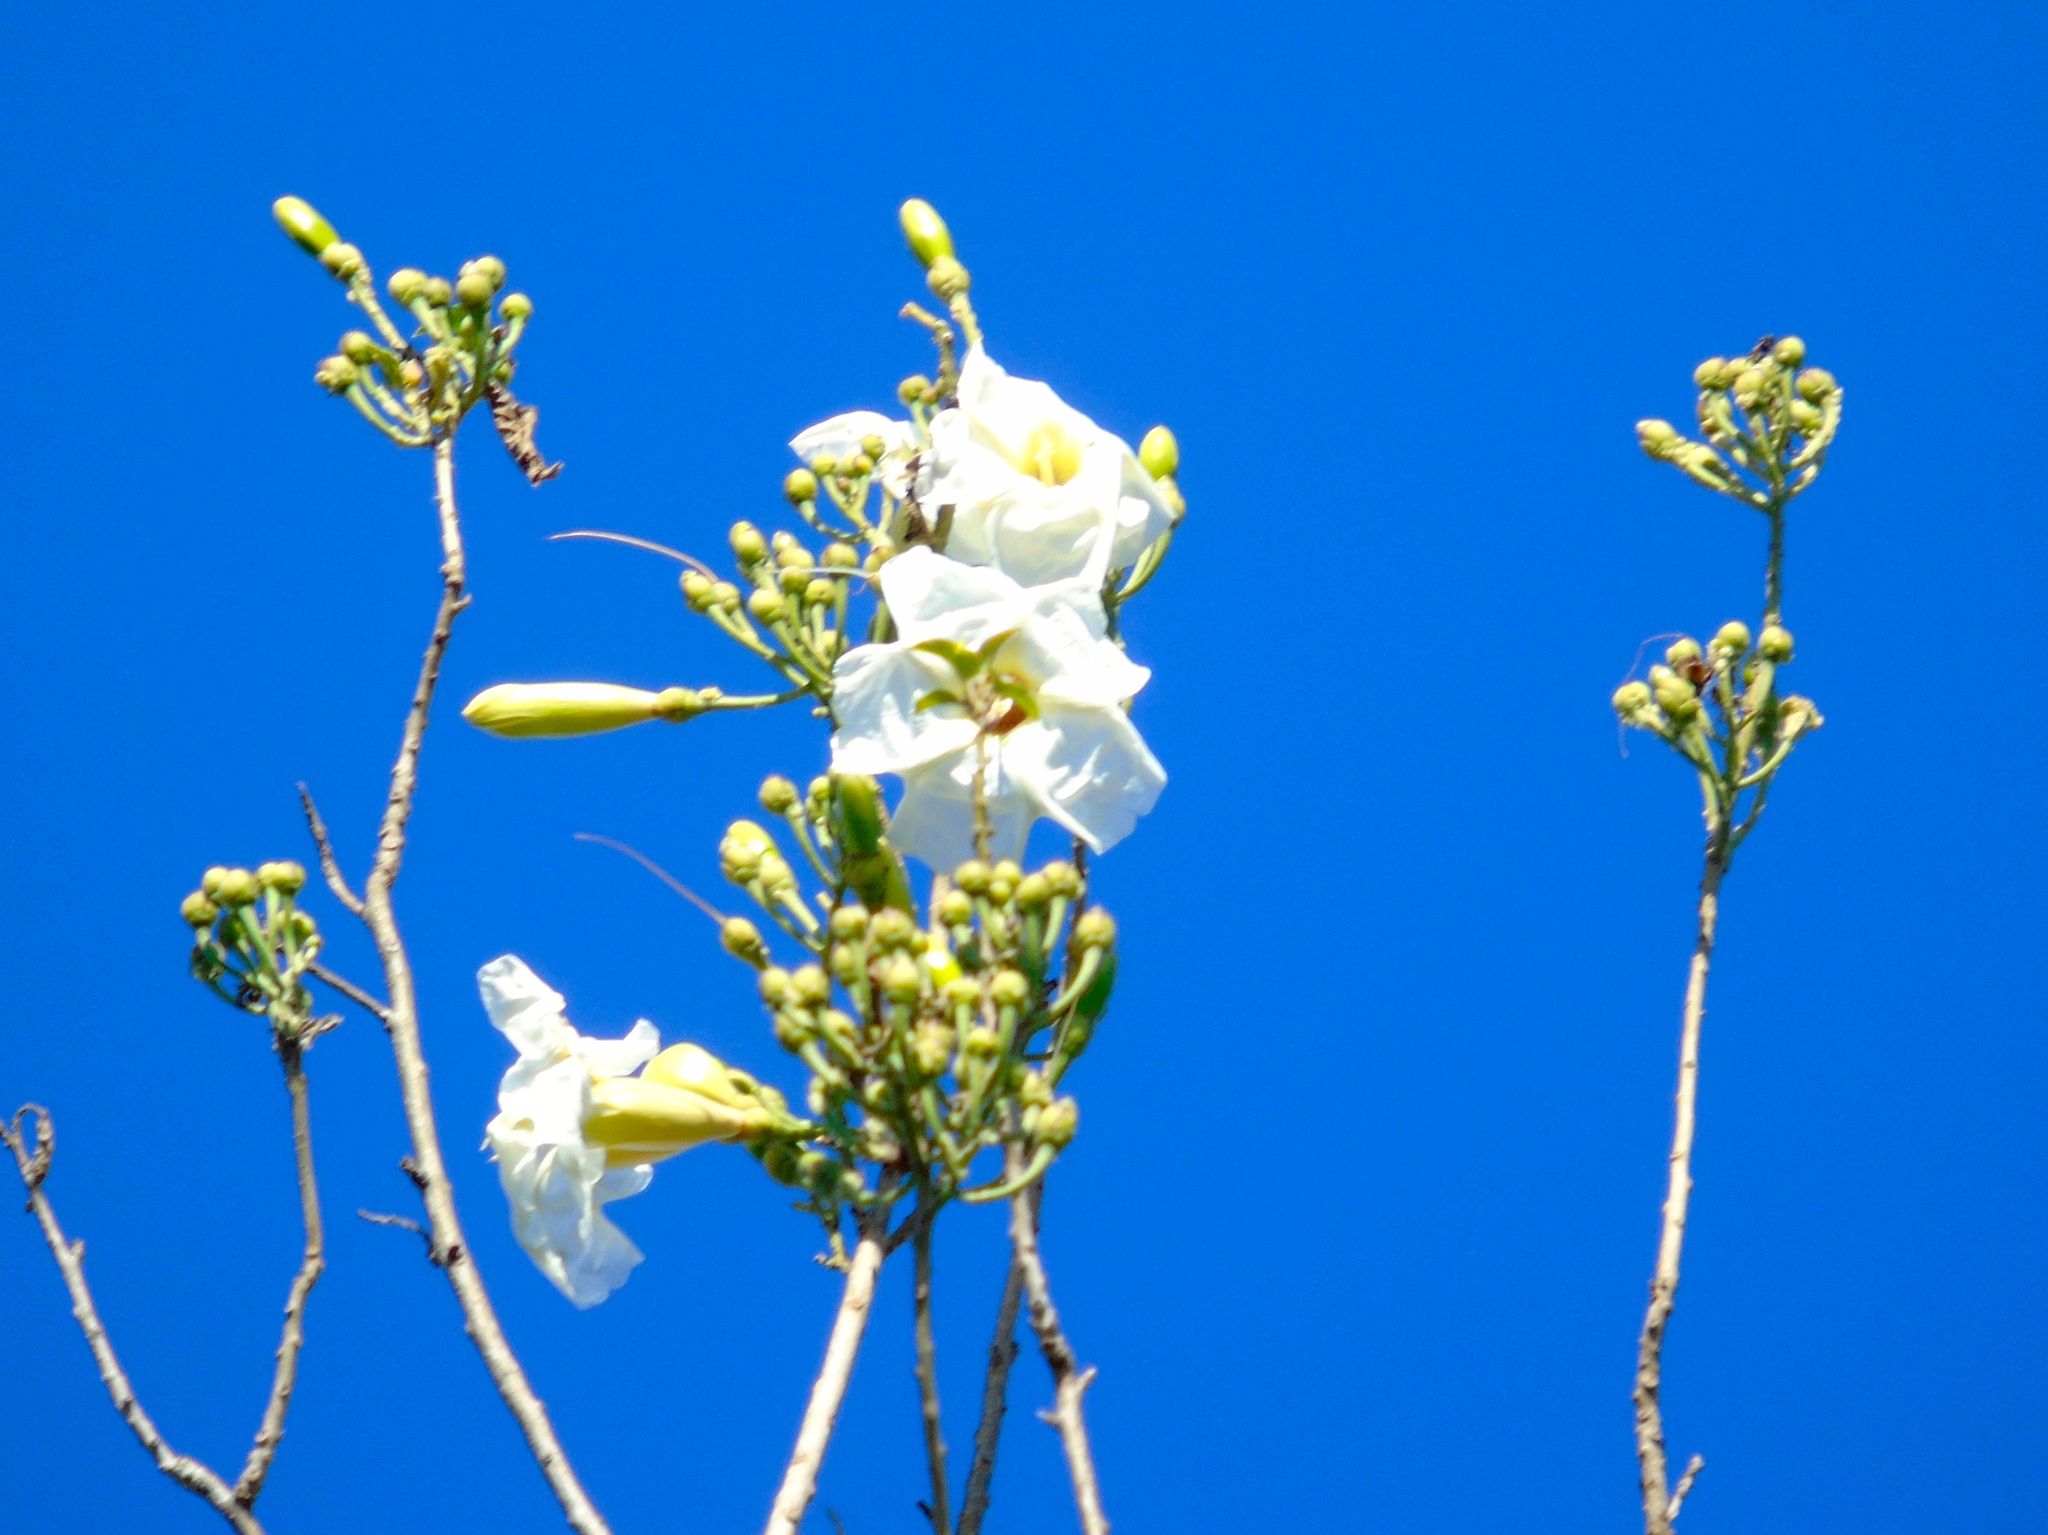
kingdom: Plantae
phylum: Tracheophyta
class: Magnoliopsida
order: Solanales
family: Convolvulaceae
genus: Ipomoea
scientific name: Ipomoea arborescens
